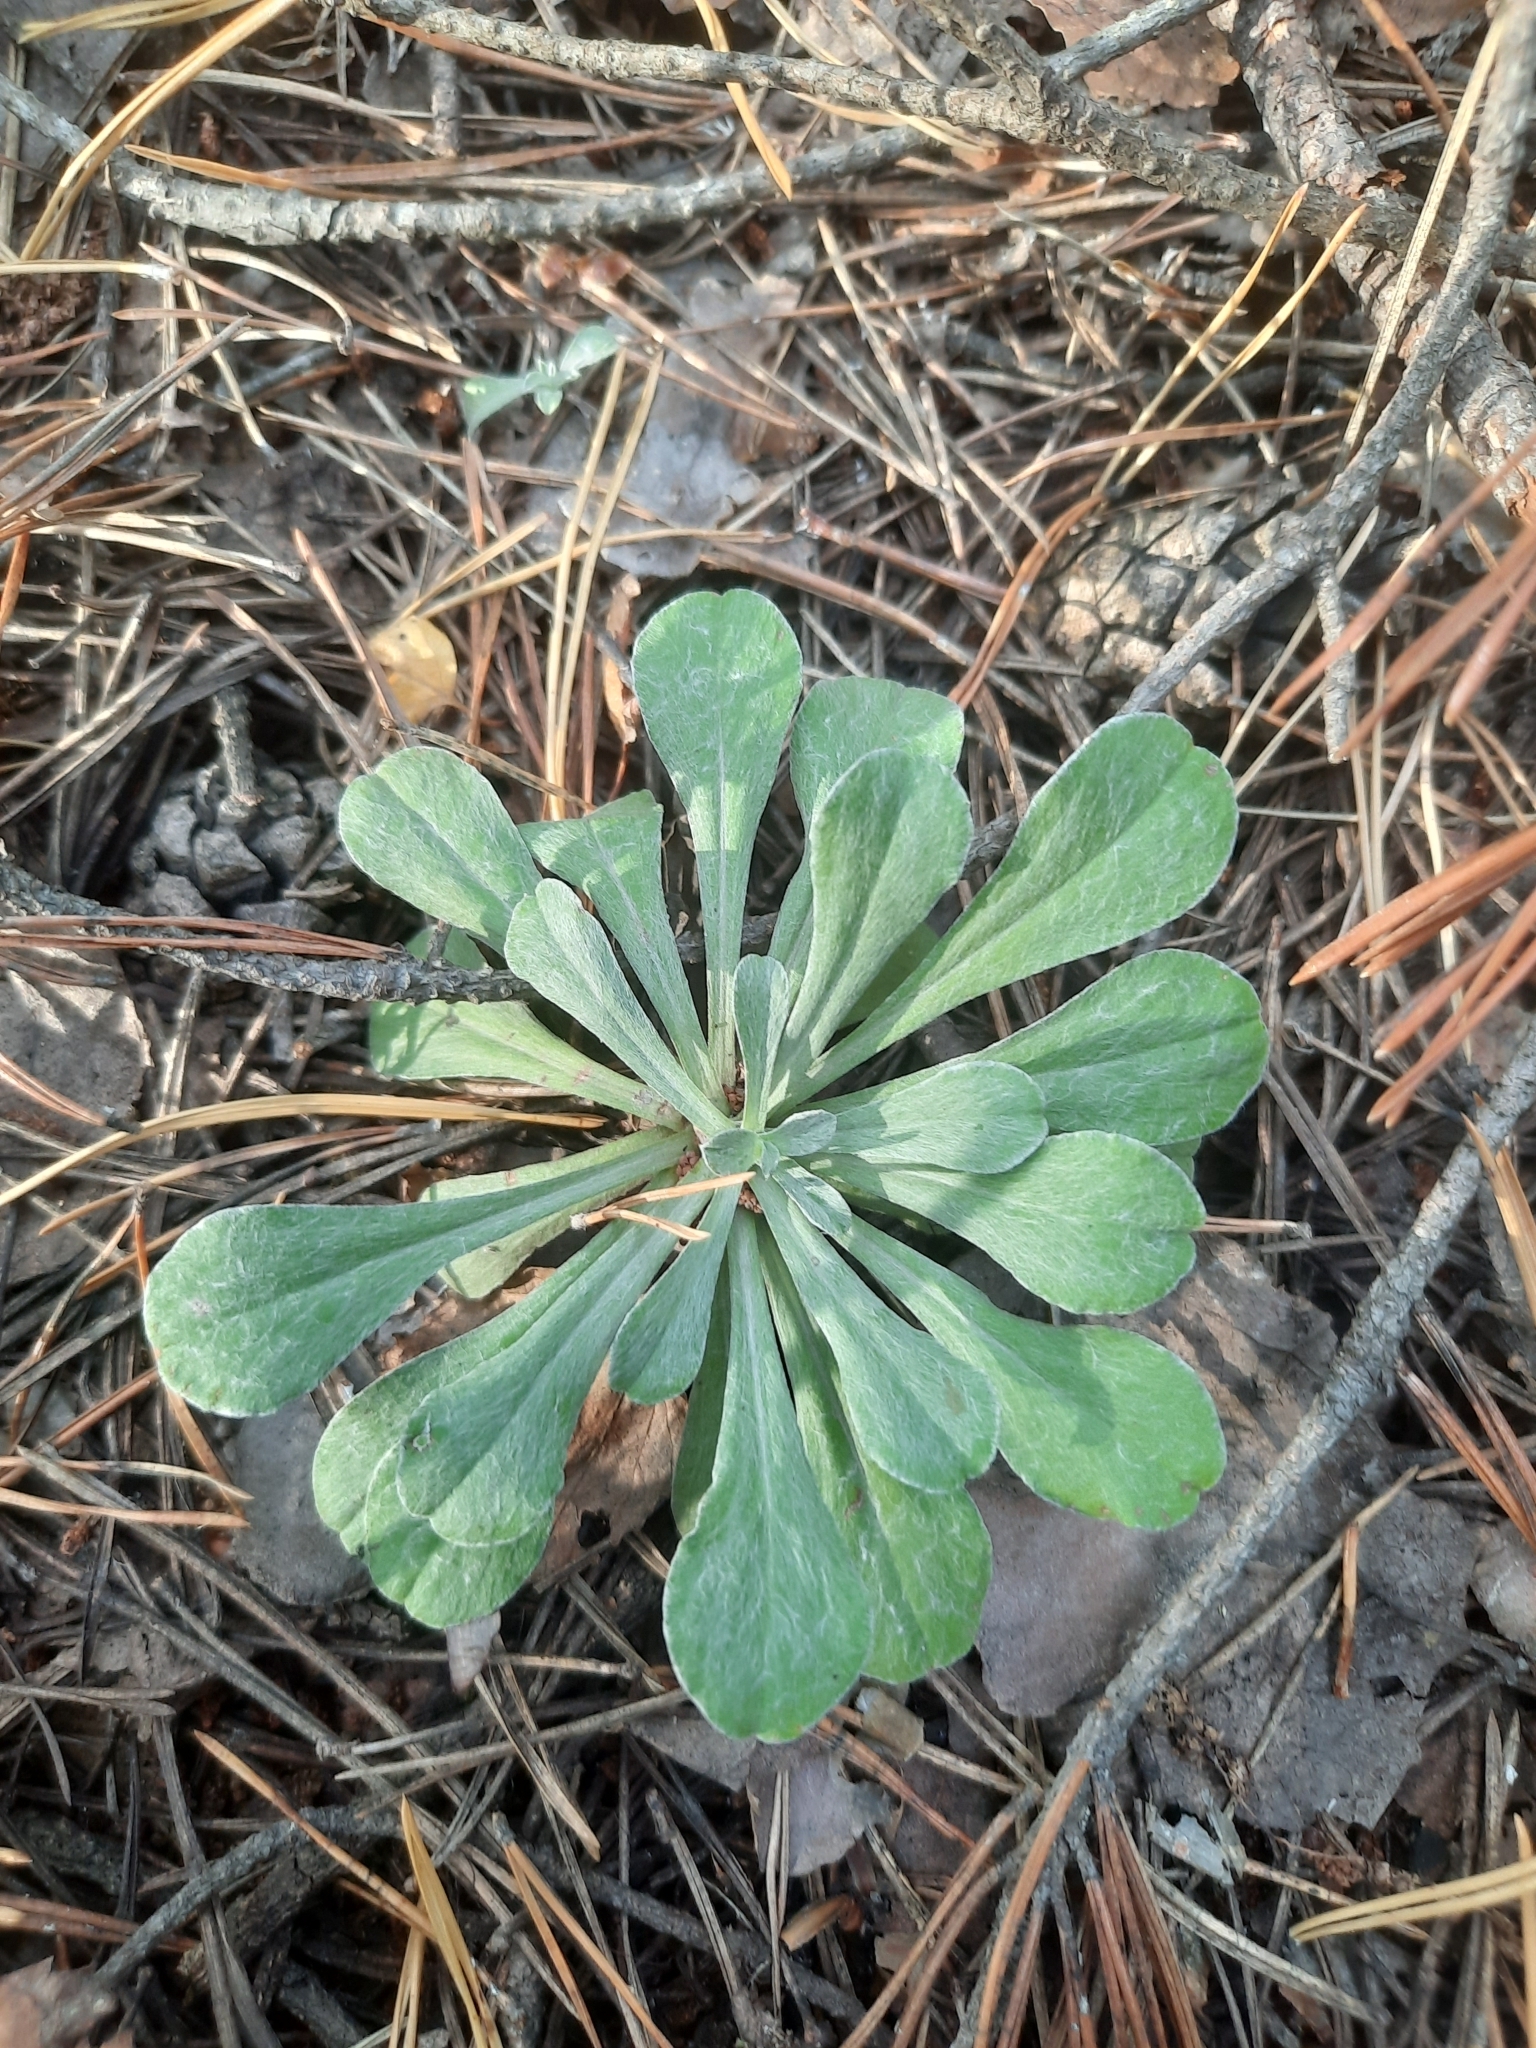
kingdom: Plantae
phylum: Tracheophyta
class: Magnoliopsida
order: Asterales
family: Asteraceae
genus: Antennaria
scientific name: Antennaria dioica
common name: Mountain everlasting
